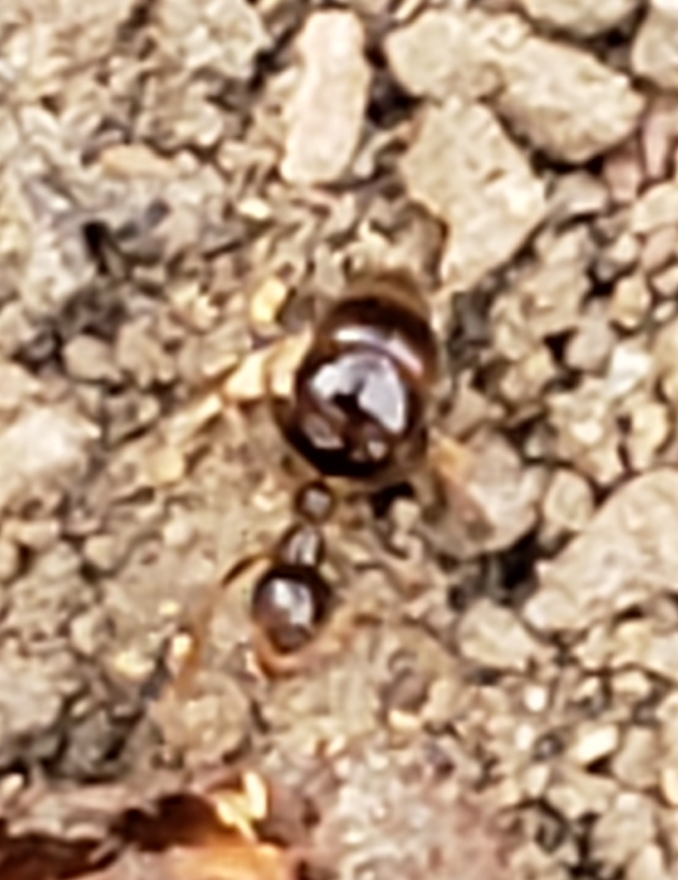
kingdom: Animalia
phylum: Arthropoda
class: Insecta
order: Hymenoptera
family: Formicidae
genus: Prenolepis
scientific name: Prenolepis imparis
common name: Small honey ant
